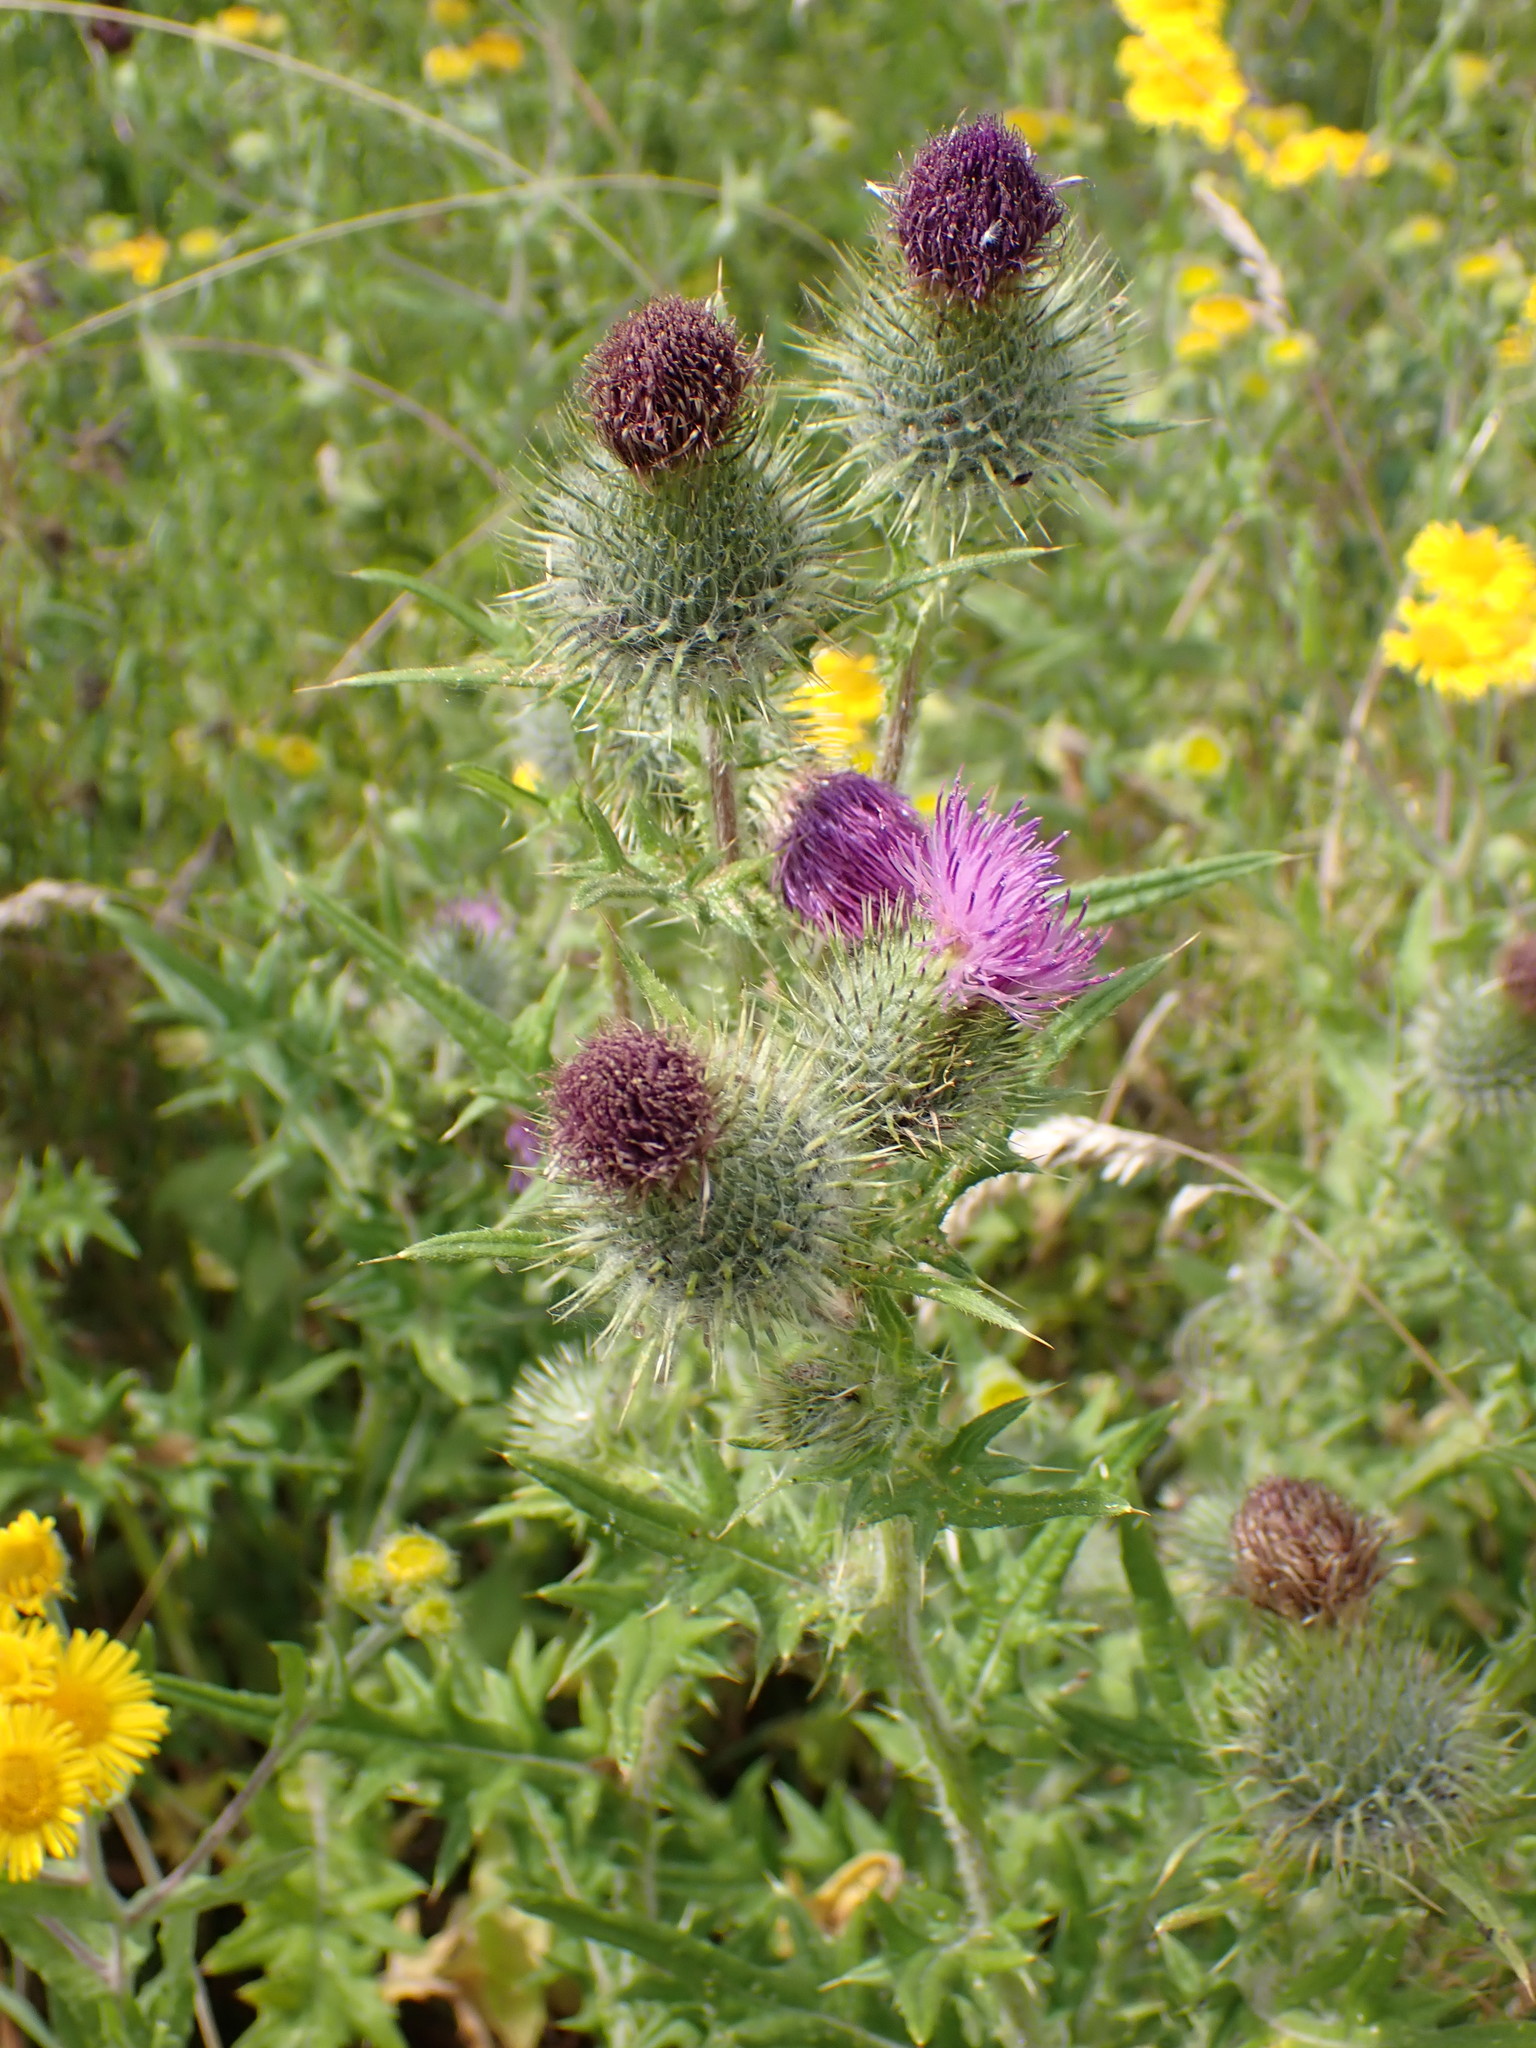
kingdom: Plantae
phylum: Tracheophyta
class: Magnoliopsida
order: Asterales
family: Asteraceae
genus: Cirsium
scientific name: Cirsium vulgare
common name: Bull thistle
